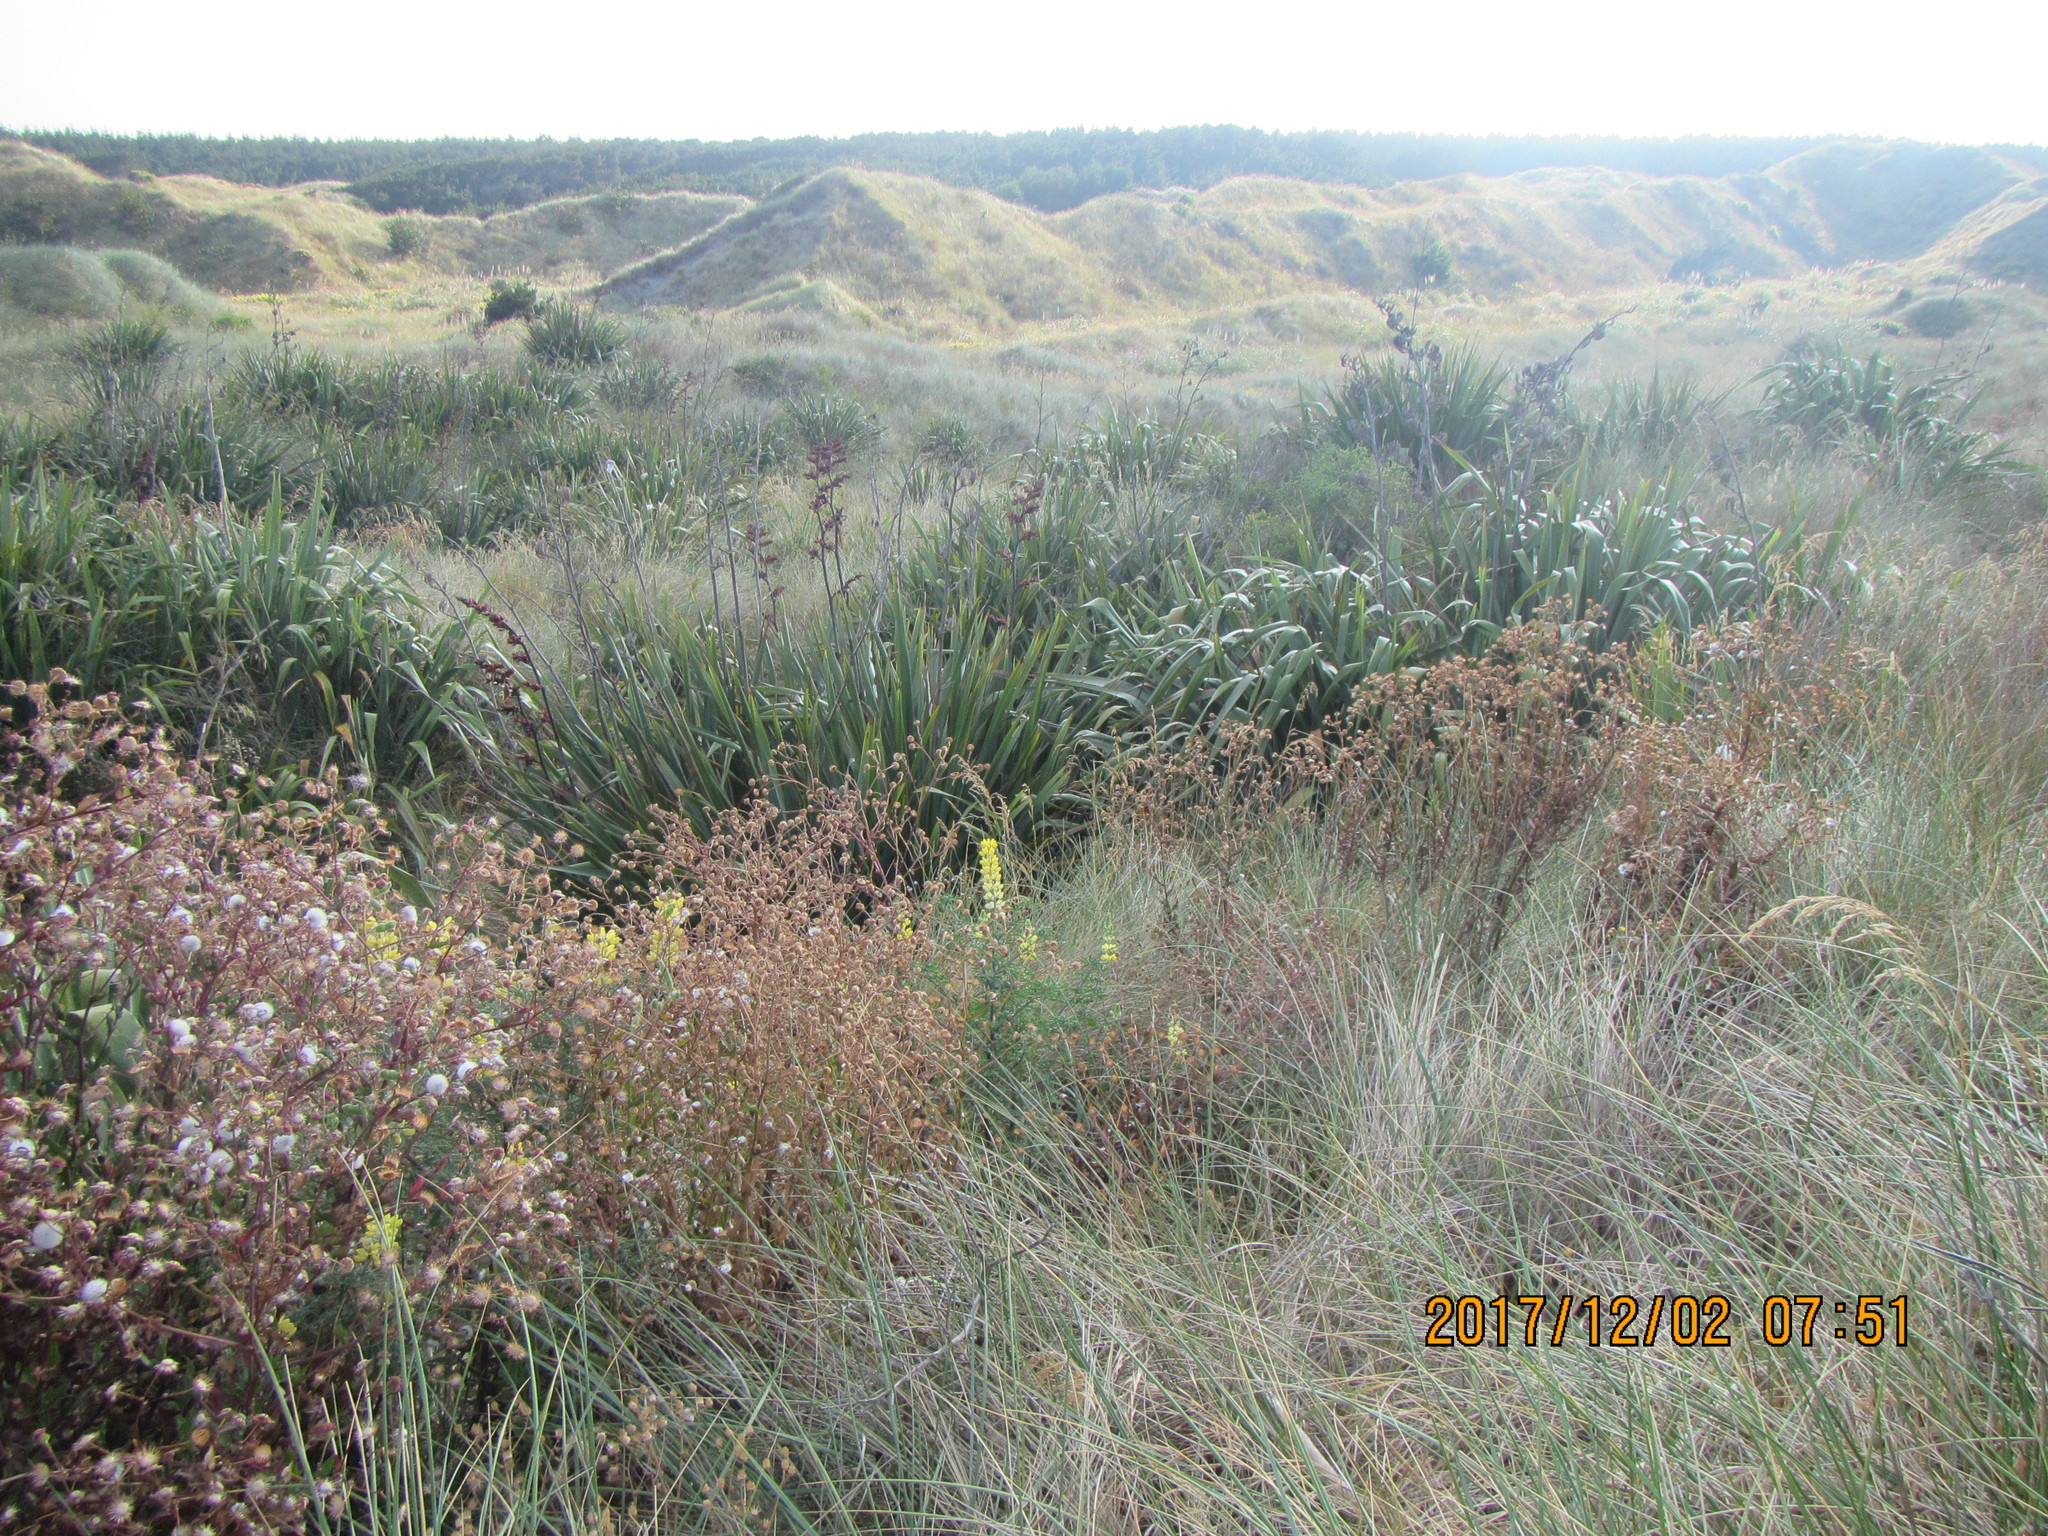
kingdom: Plantae
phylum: Tracheophyta
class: Liliopsida
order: Asparagales
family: Asphodelaceae
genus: Phormium
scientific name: Phormium tenax
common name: New zealand flax
